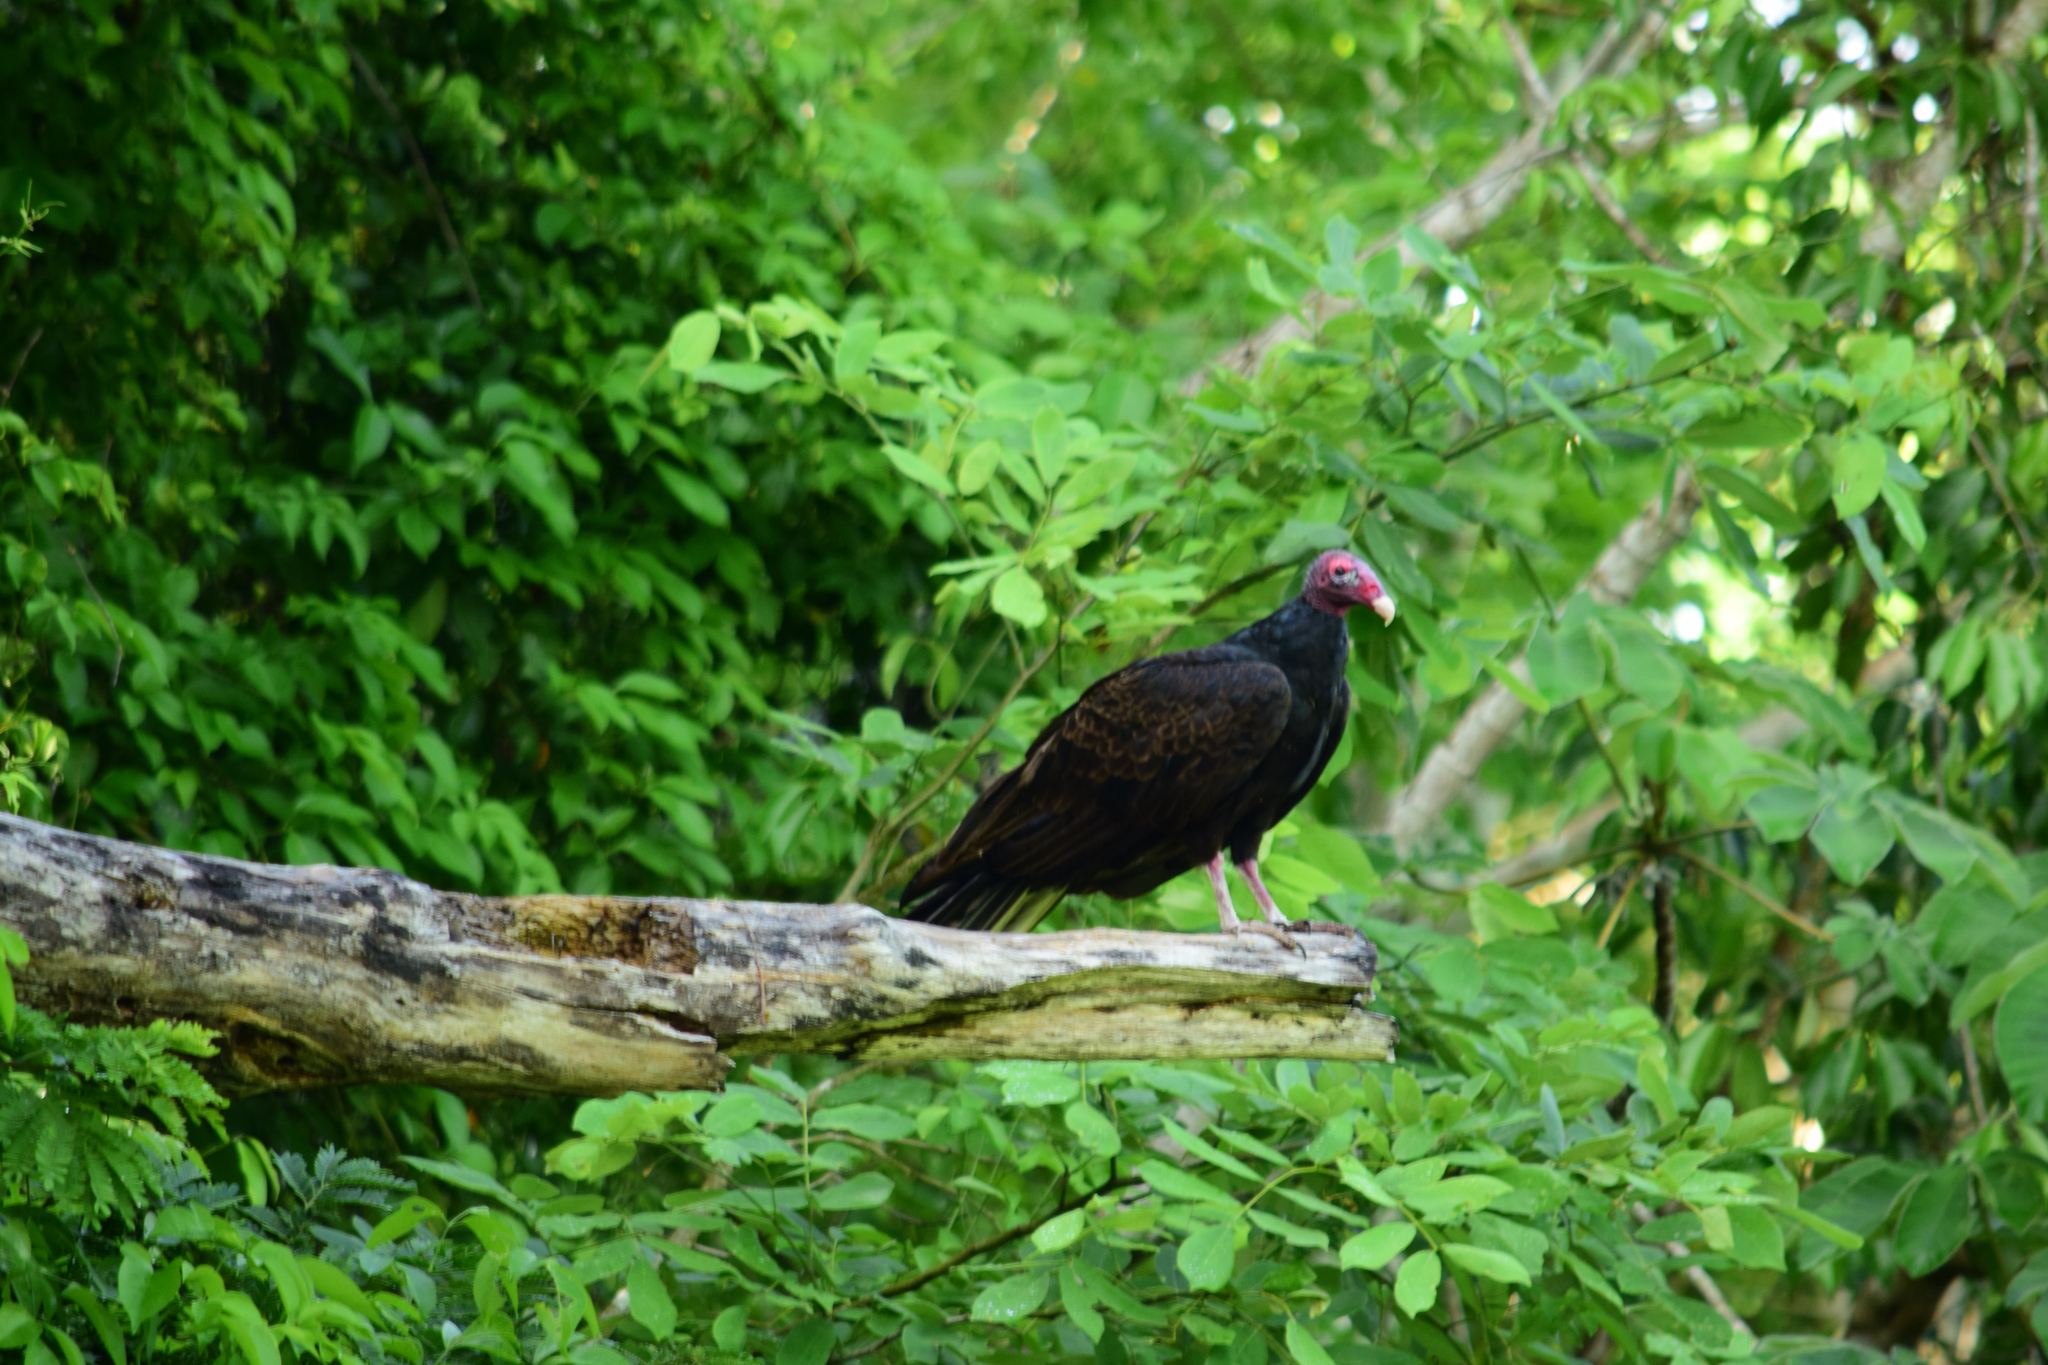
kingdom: Animalia
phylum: Chordata
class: Aves
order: Accipitriformes
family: Cathartidae
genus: Cathartes
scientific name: Cathartes aura
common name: Turkey vulture
